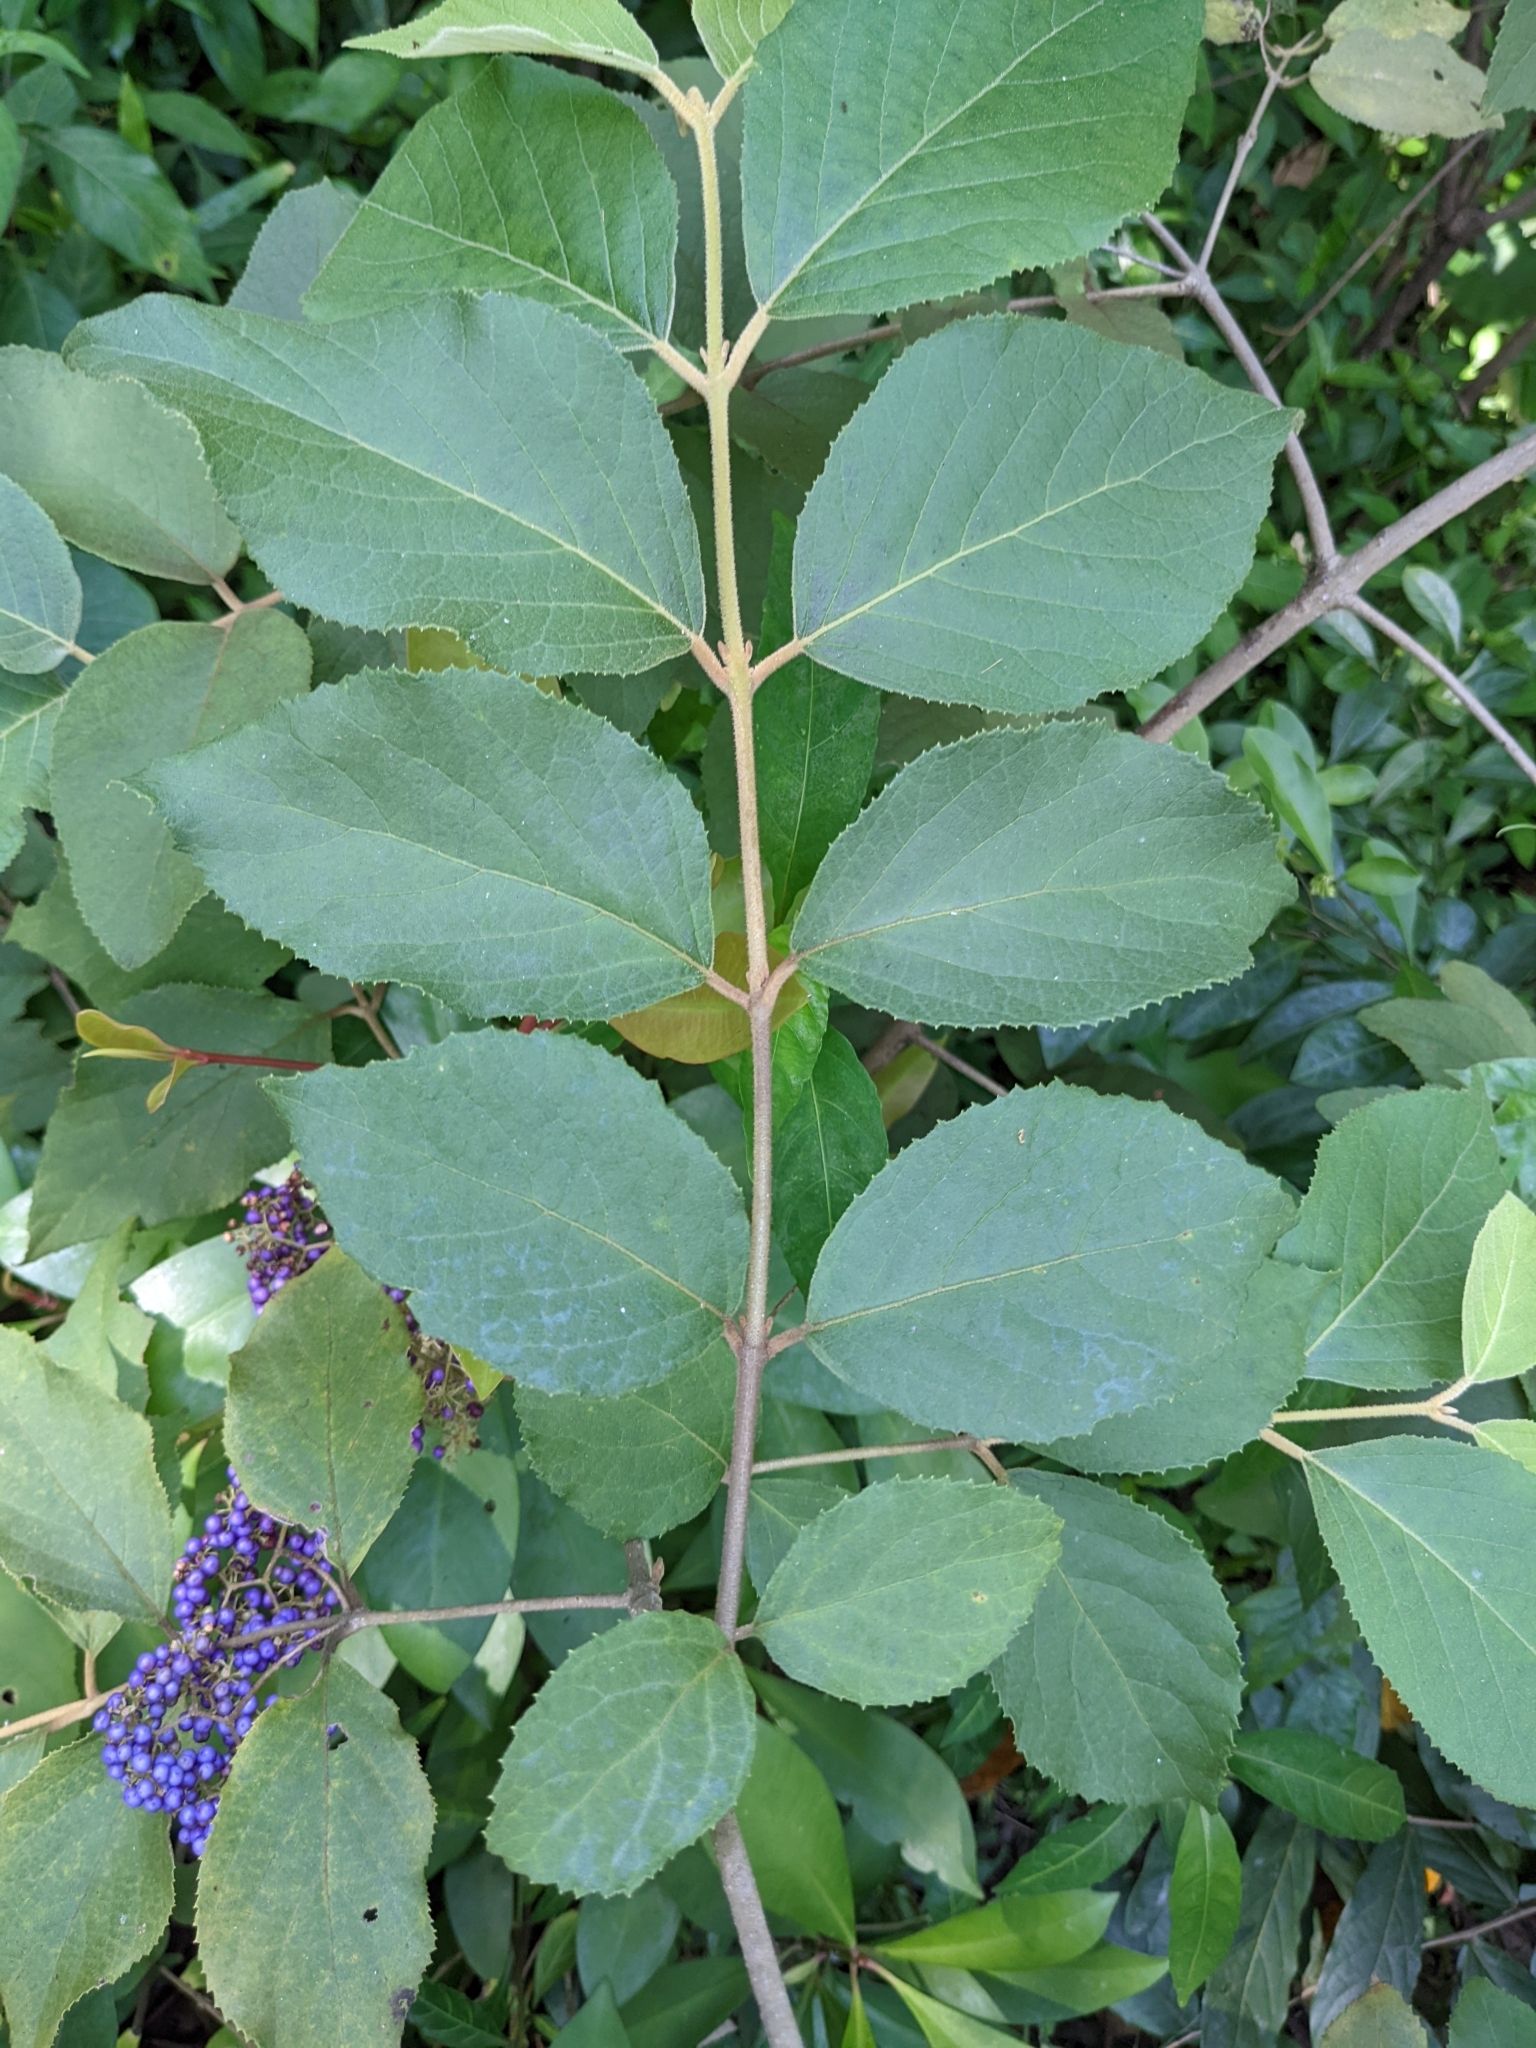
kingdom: Plantae
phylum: Tracheophyta
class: Magnoliopsida
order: Lamiales
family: Lamiaceae
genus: Callicarpa
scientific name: Callicarpa pedunculata
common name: Velvetleaf
